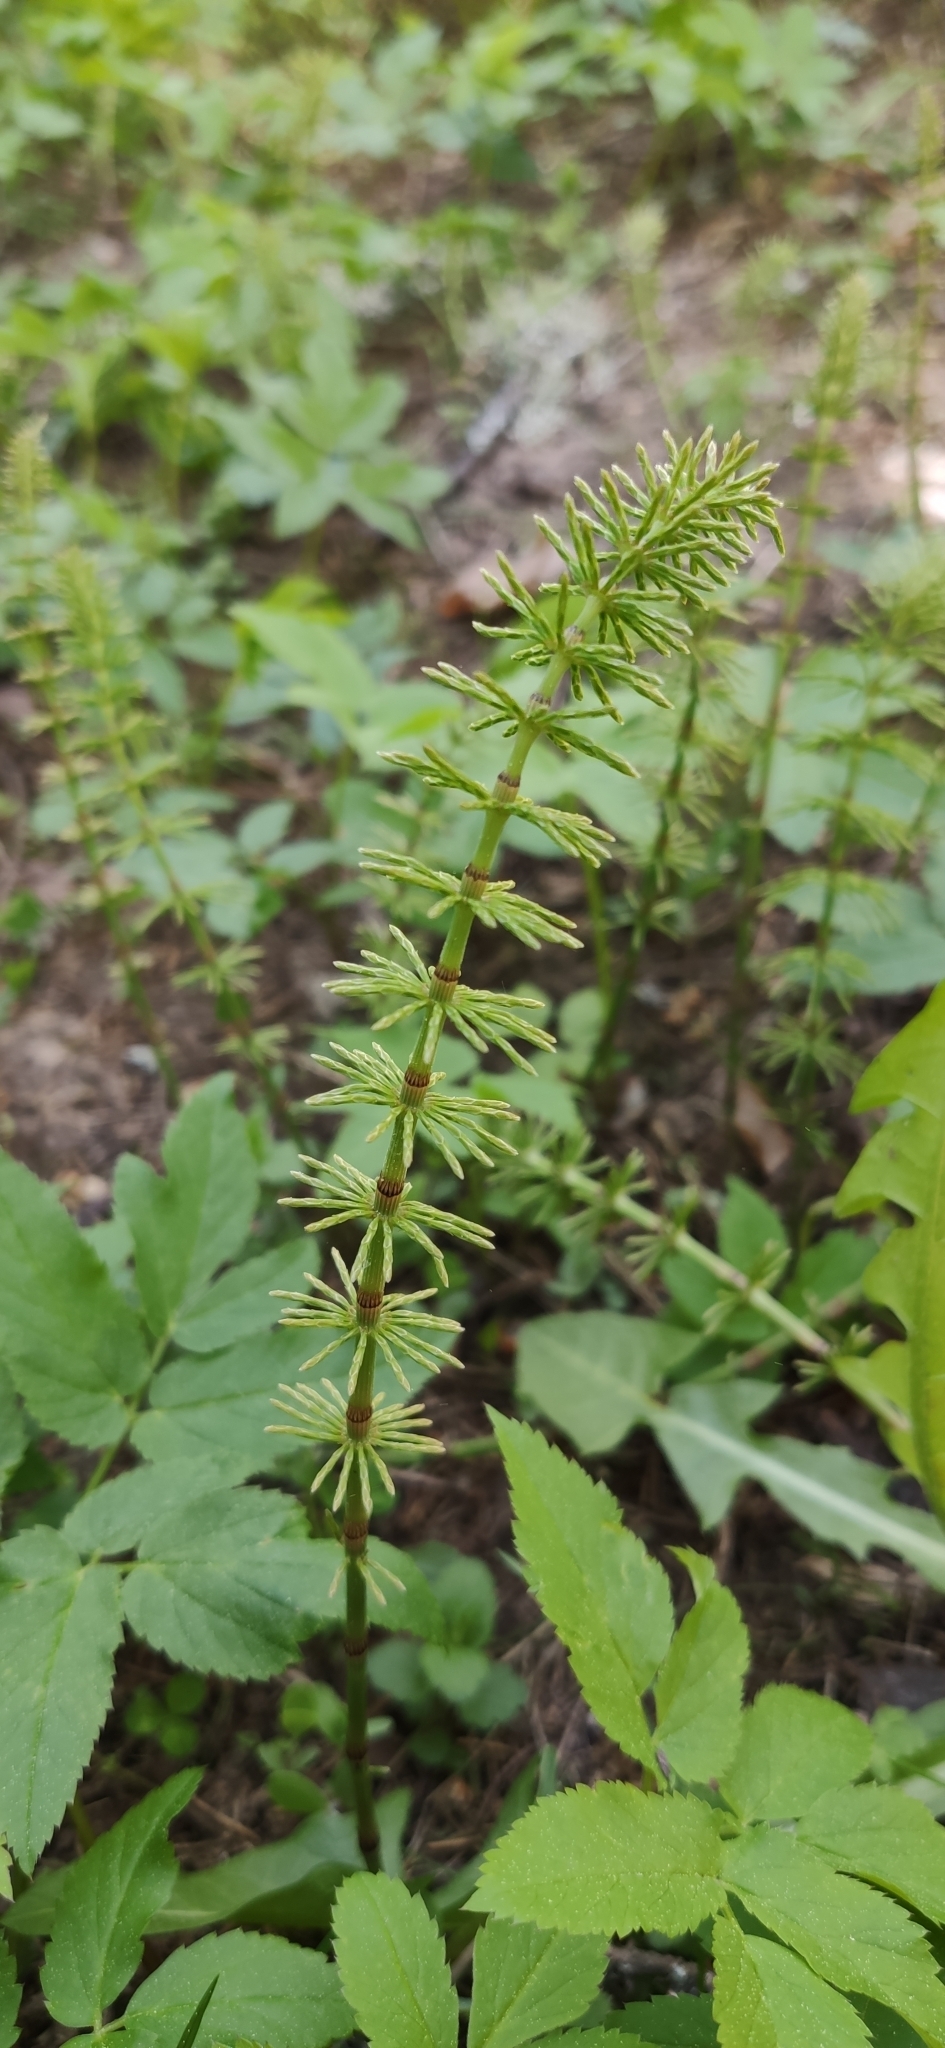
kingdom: Plantae
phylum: Tracheophyta
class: Polypodiopsida
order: Equisetales
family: Equisetaceae
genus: Equisetum
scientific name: Equisetum pratense
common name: Meadow horsetail
